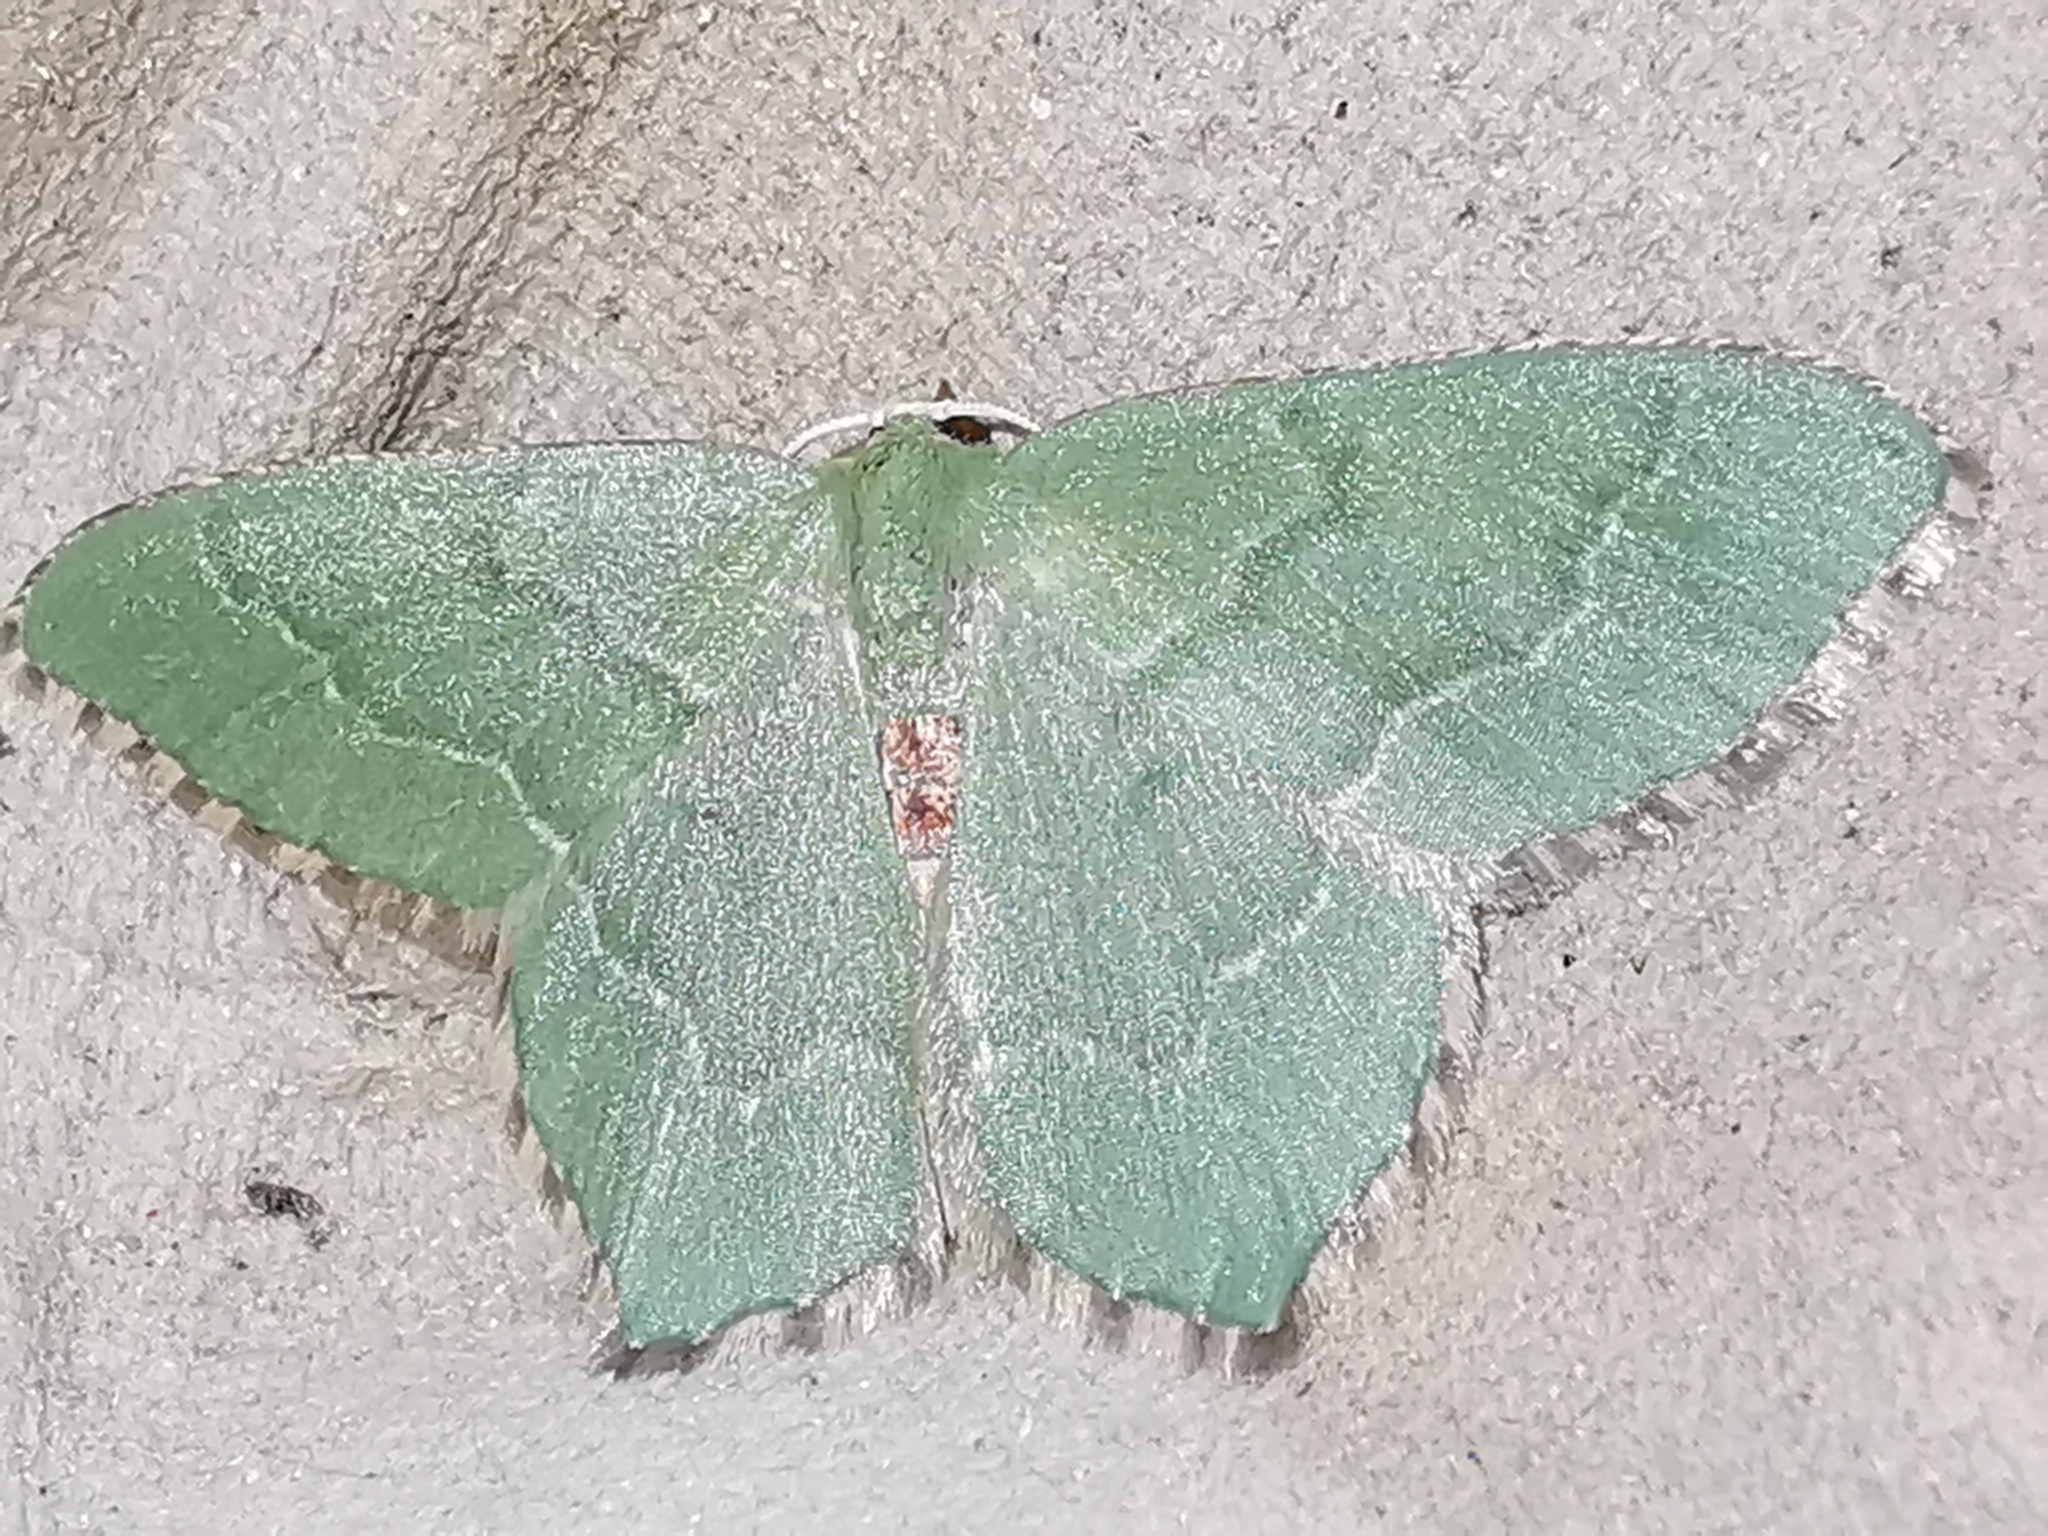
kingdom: Animalia
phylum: Arthropoda
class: Insecta
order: Lepidoptera
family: Geometridae
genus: Hemithea
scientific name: Hemithea aestivaria
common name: Common emerald
